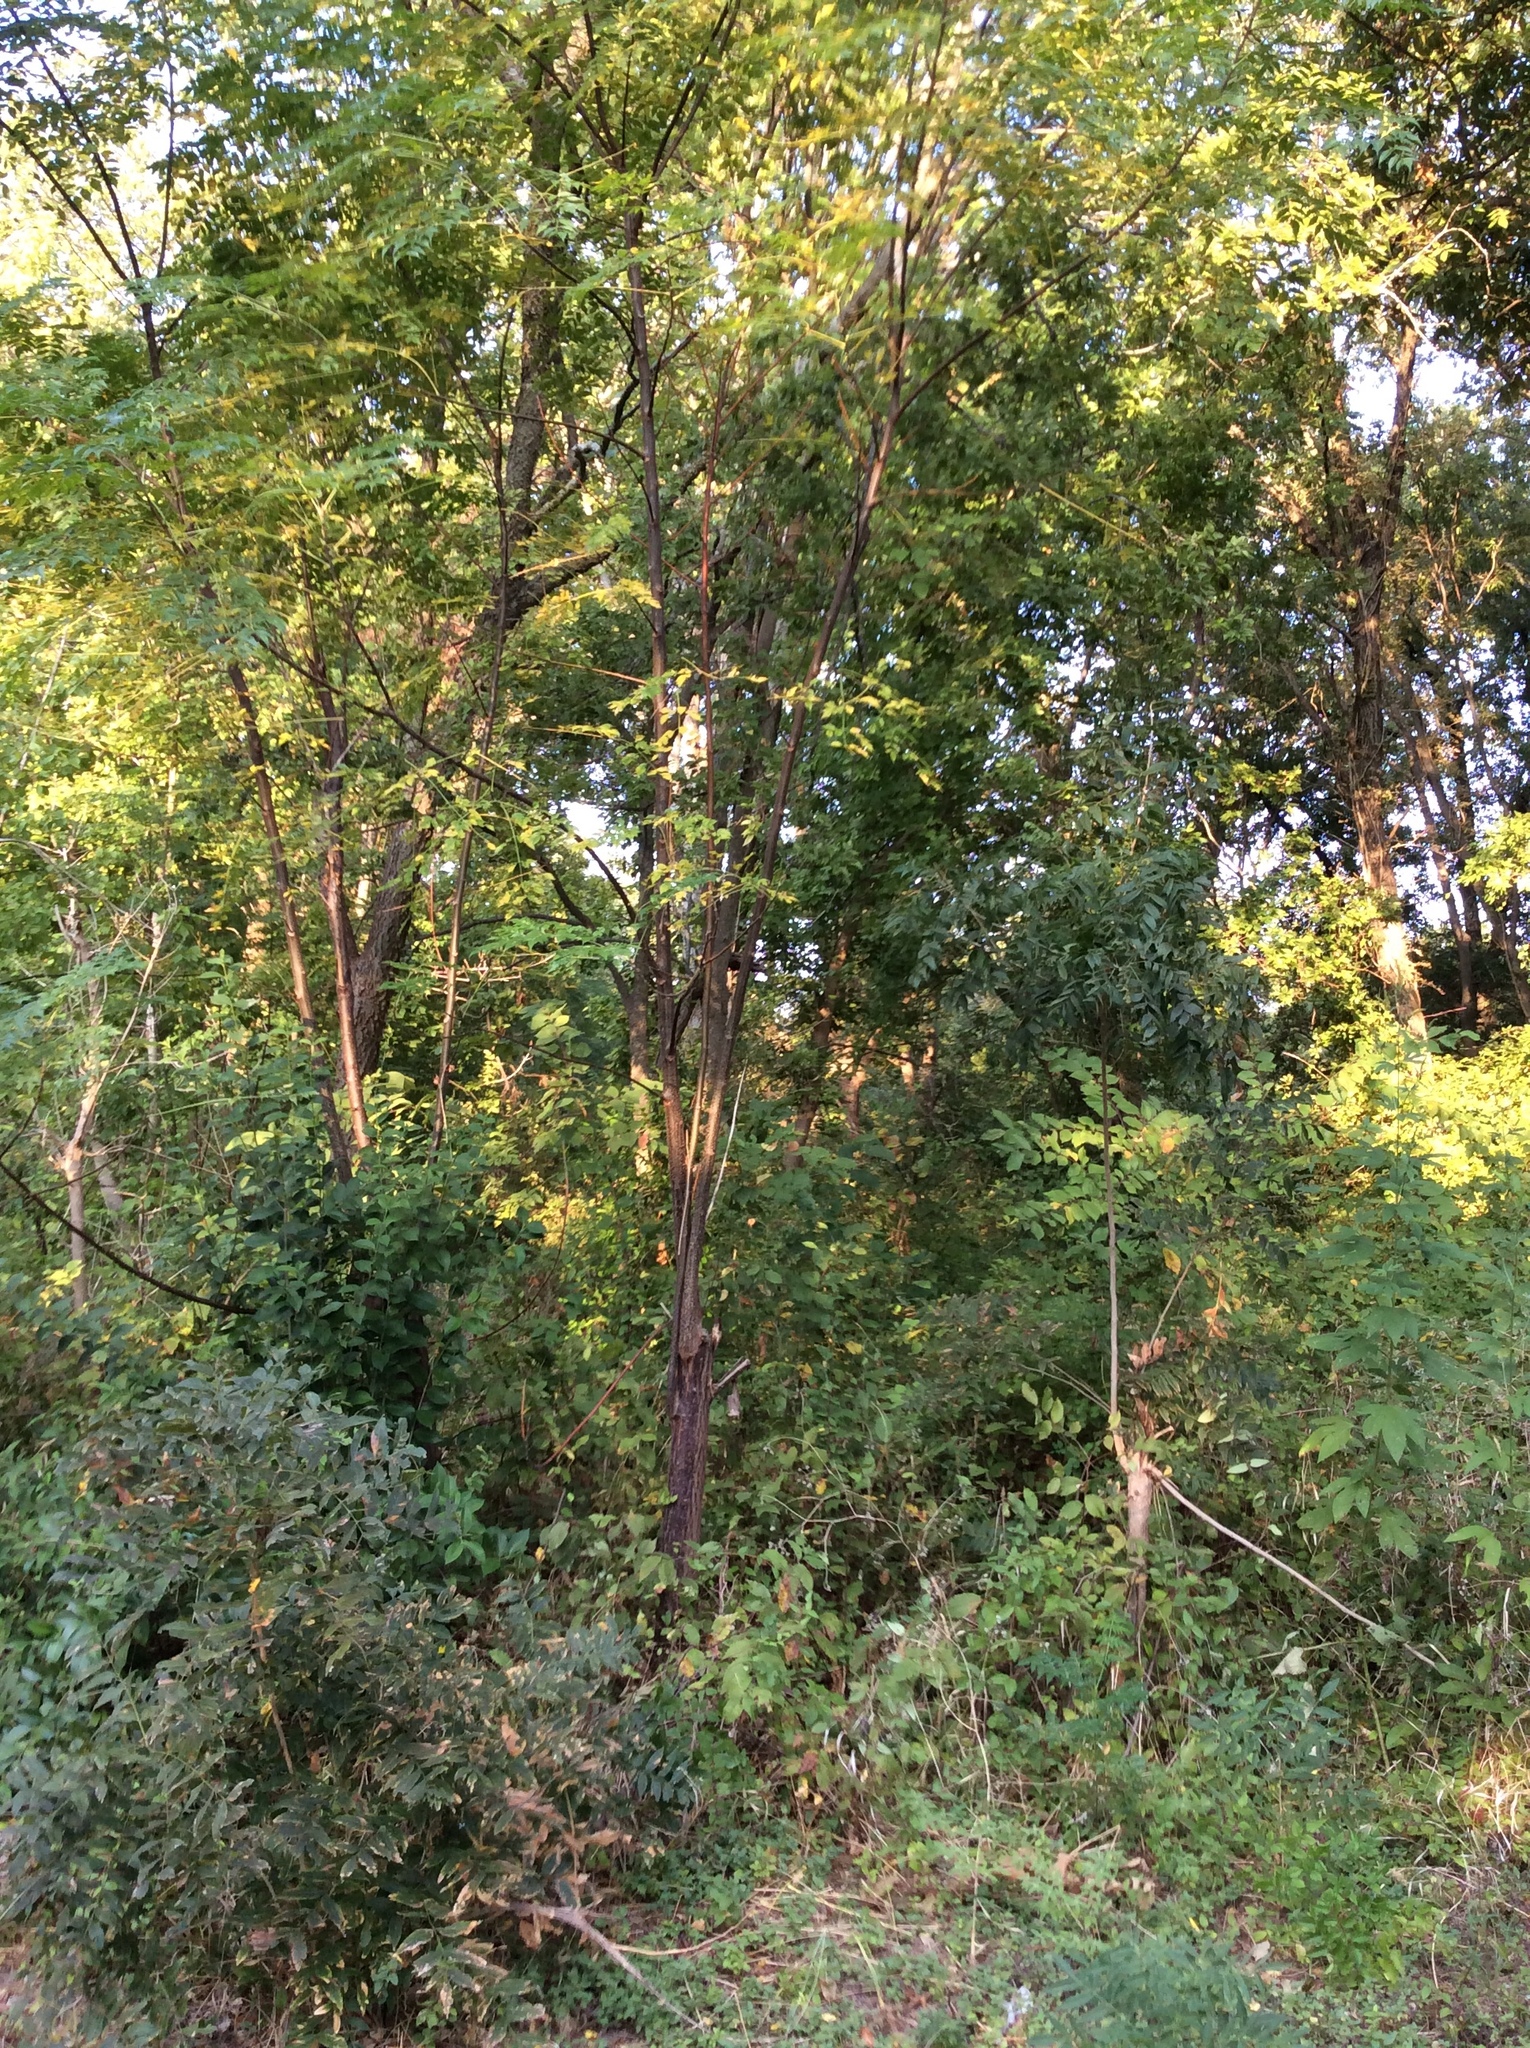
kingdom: Plantae
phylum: Tracheophyta
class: Magnoliopsida
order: Sapindales
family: Meliaceae
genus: Melia
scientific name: Melia azedarach
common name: Chinaberrytree
